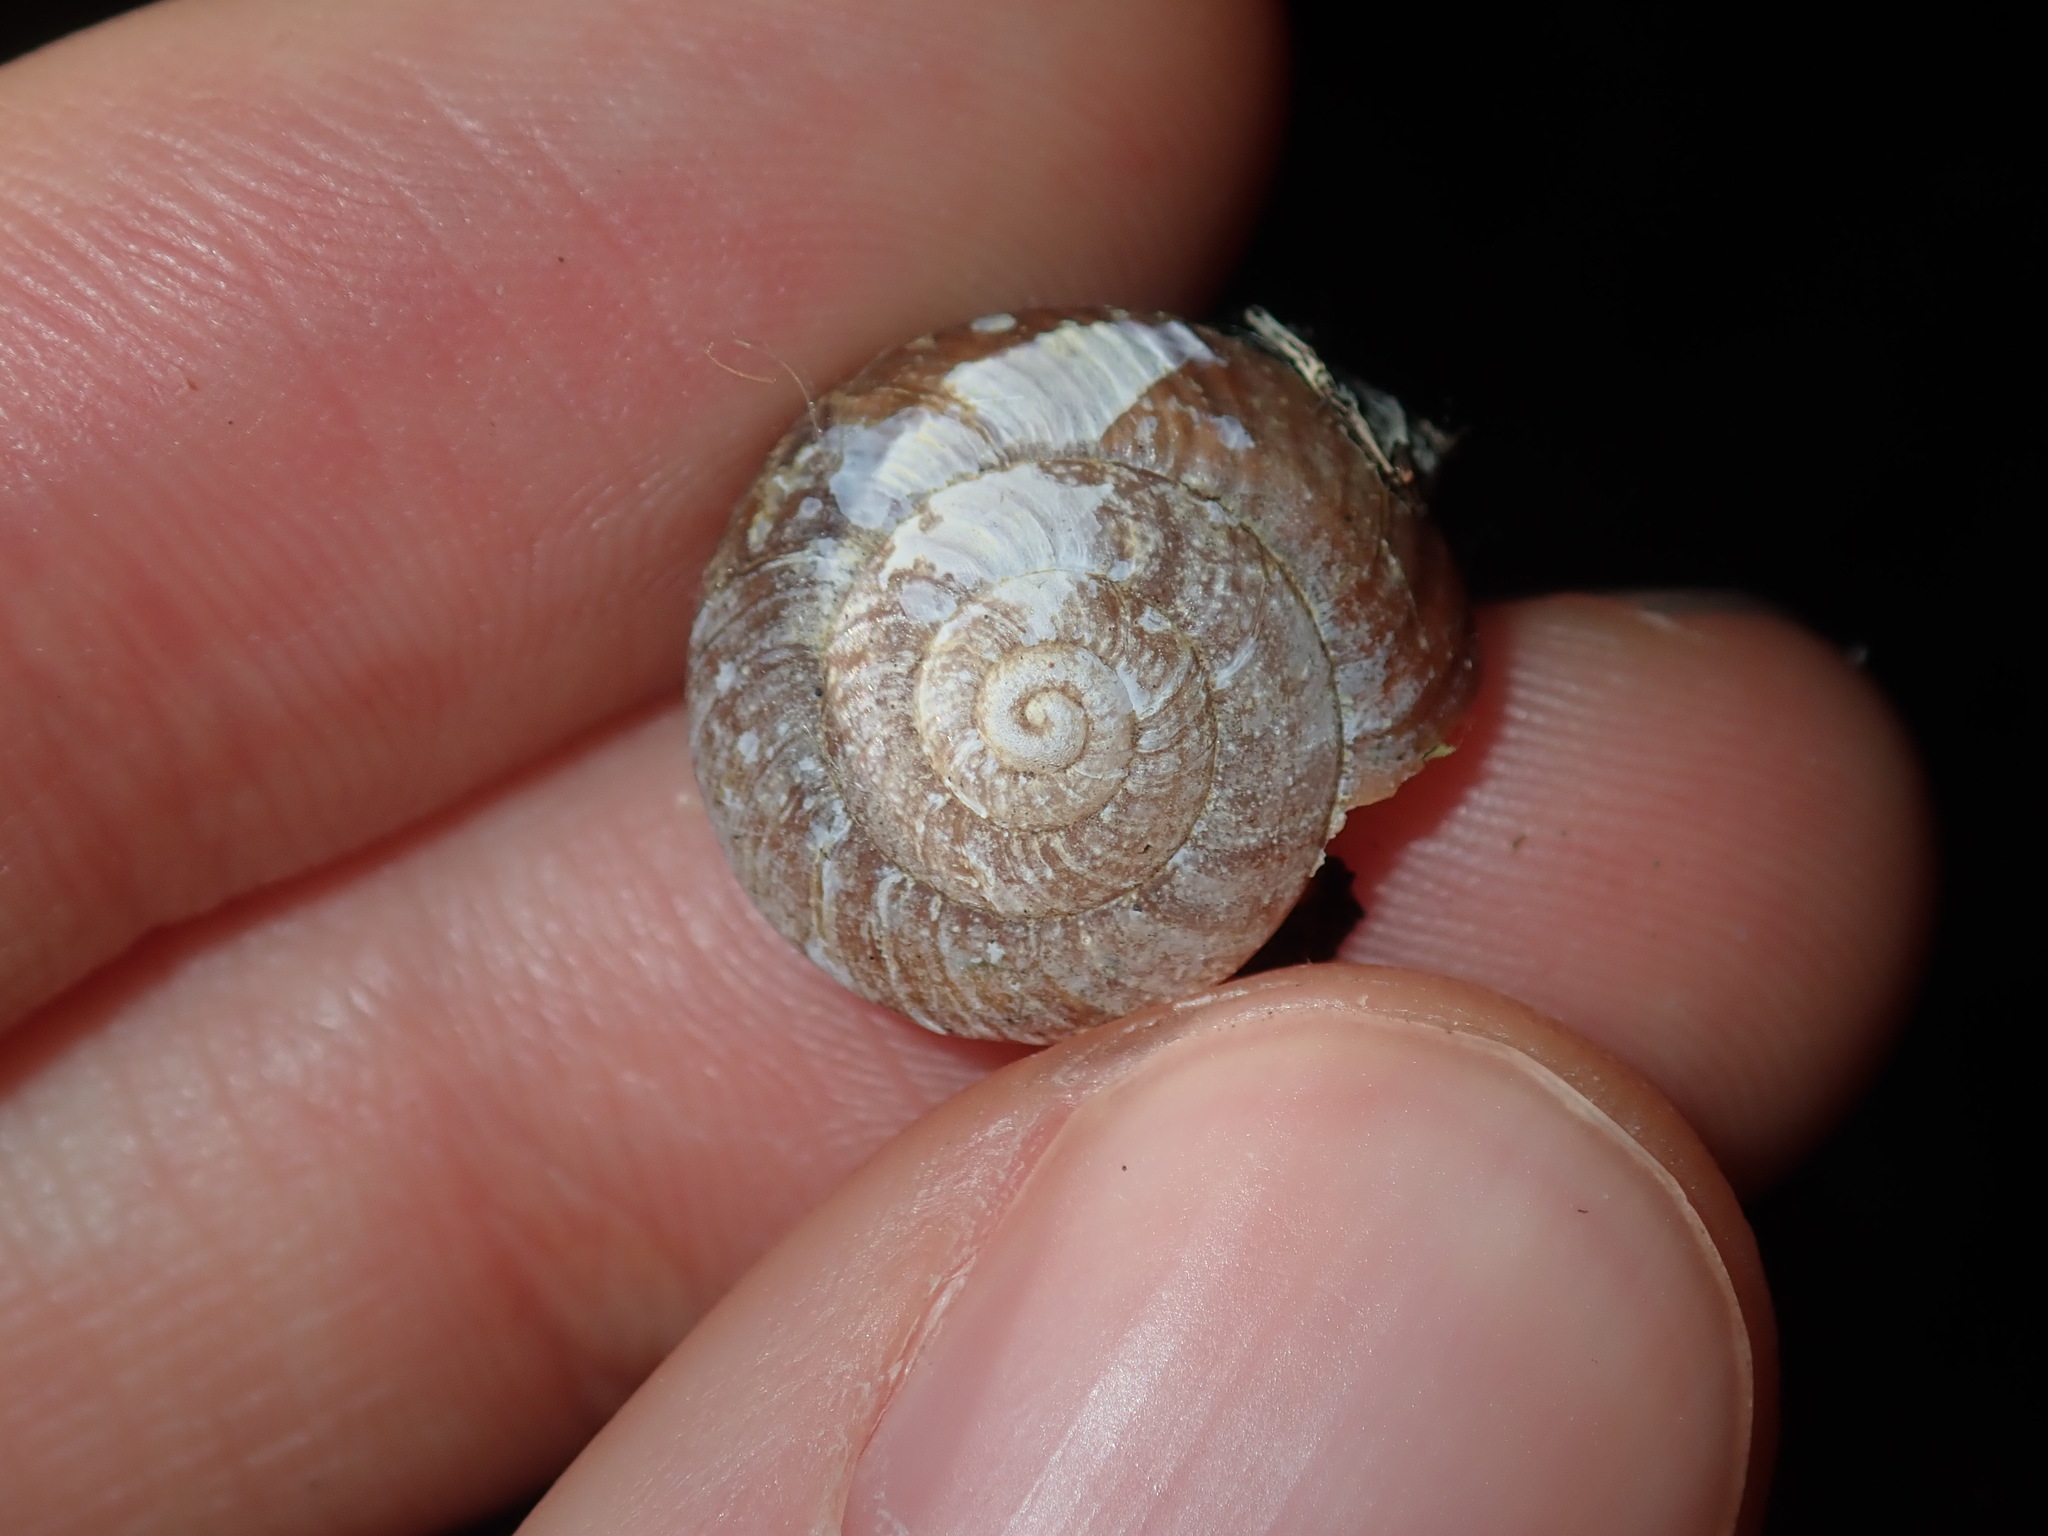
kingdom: Animalia
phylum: Mollusca
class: Gastropoda
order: Stylommatophora
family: Camaenidae
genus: Sauroconcha
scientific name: Sauroconcha sheai
